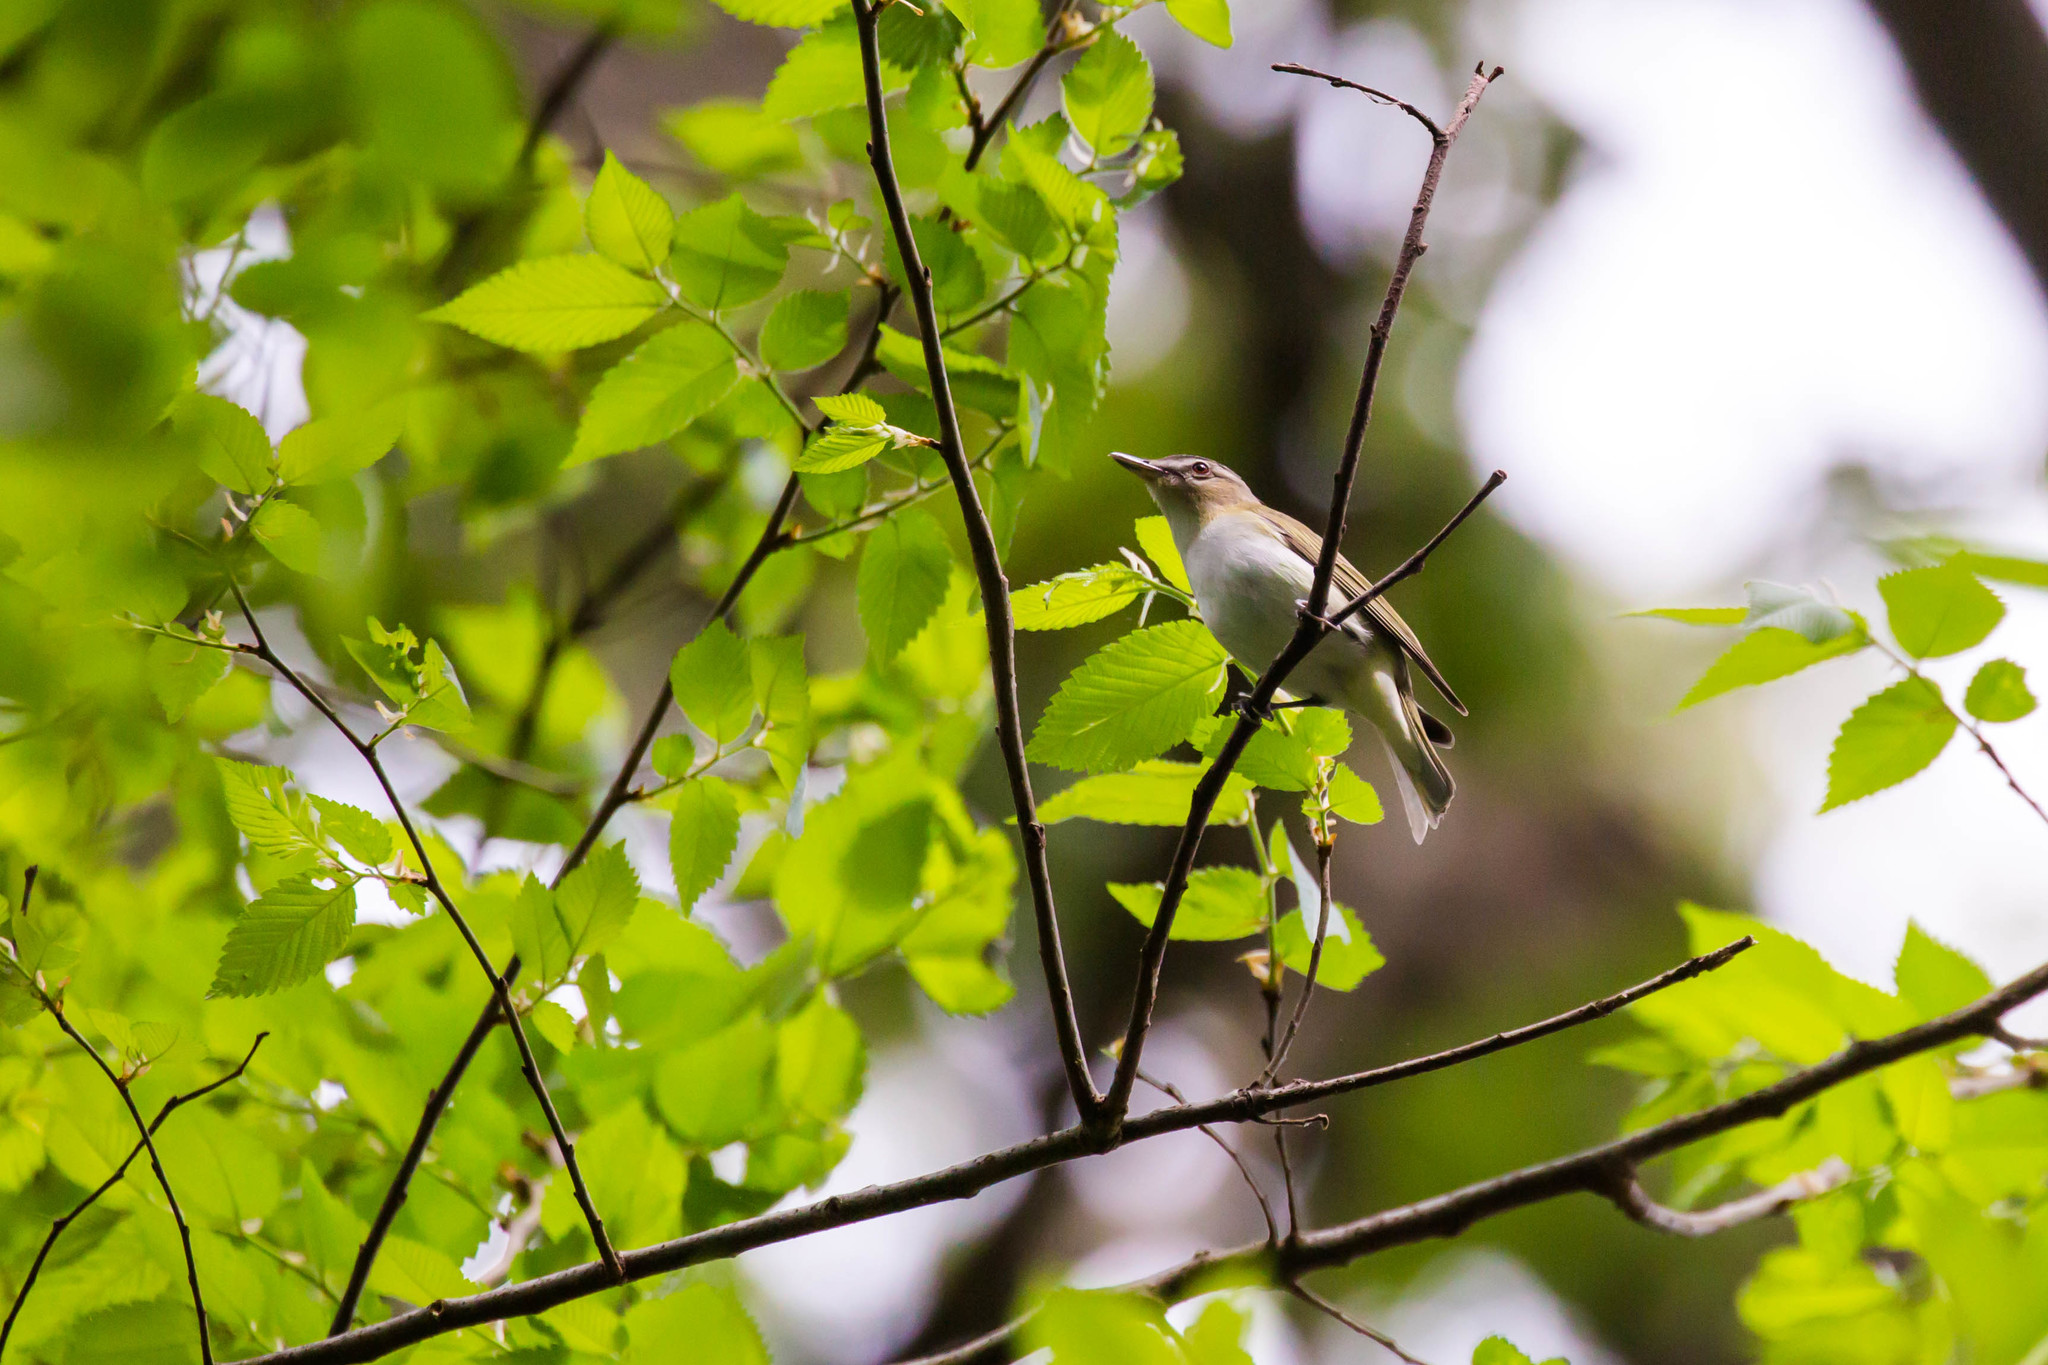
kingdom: Animalia
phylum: Chordata
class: Aves
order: Passeriformes
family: Vireonidae
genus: Vireo
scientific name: Vireo olivaceus
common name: Red-eyed vireo
